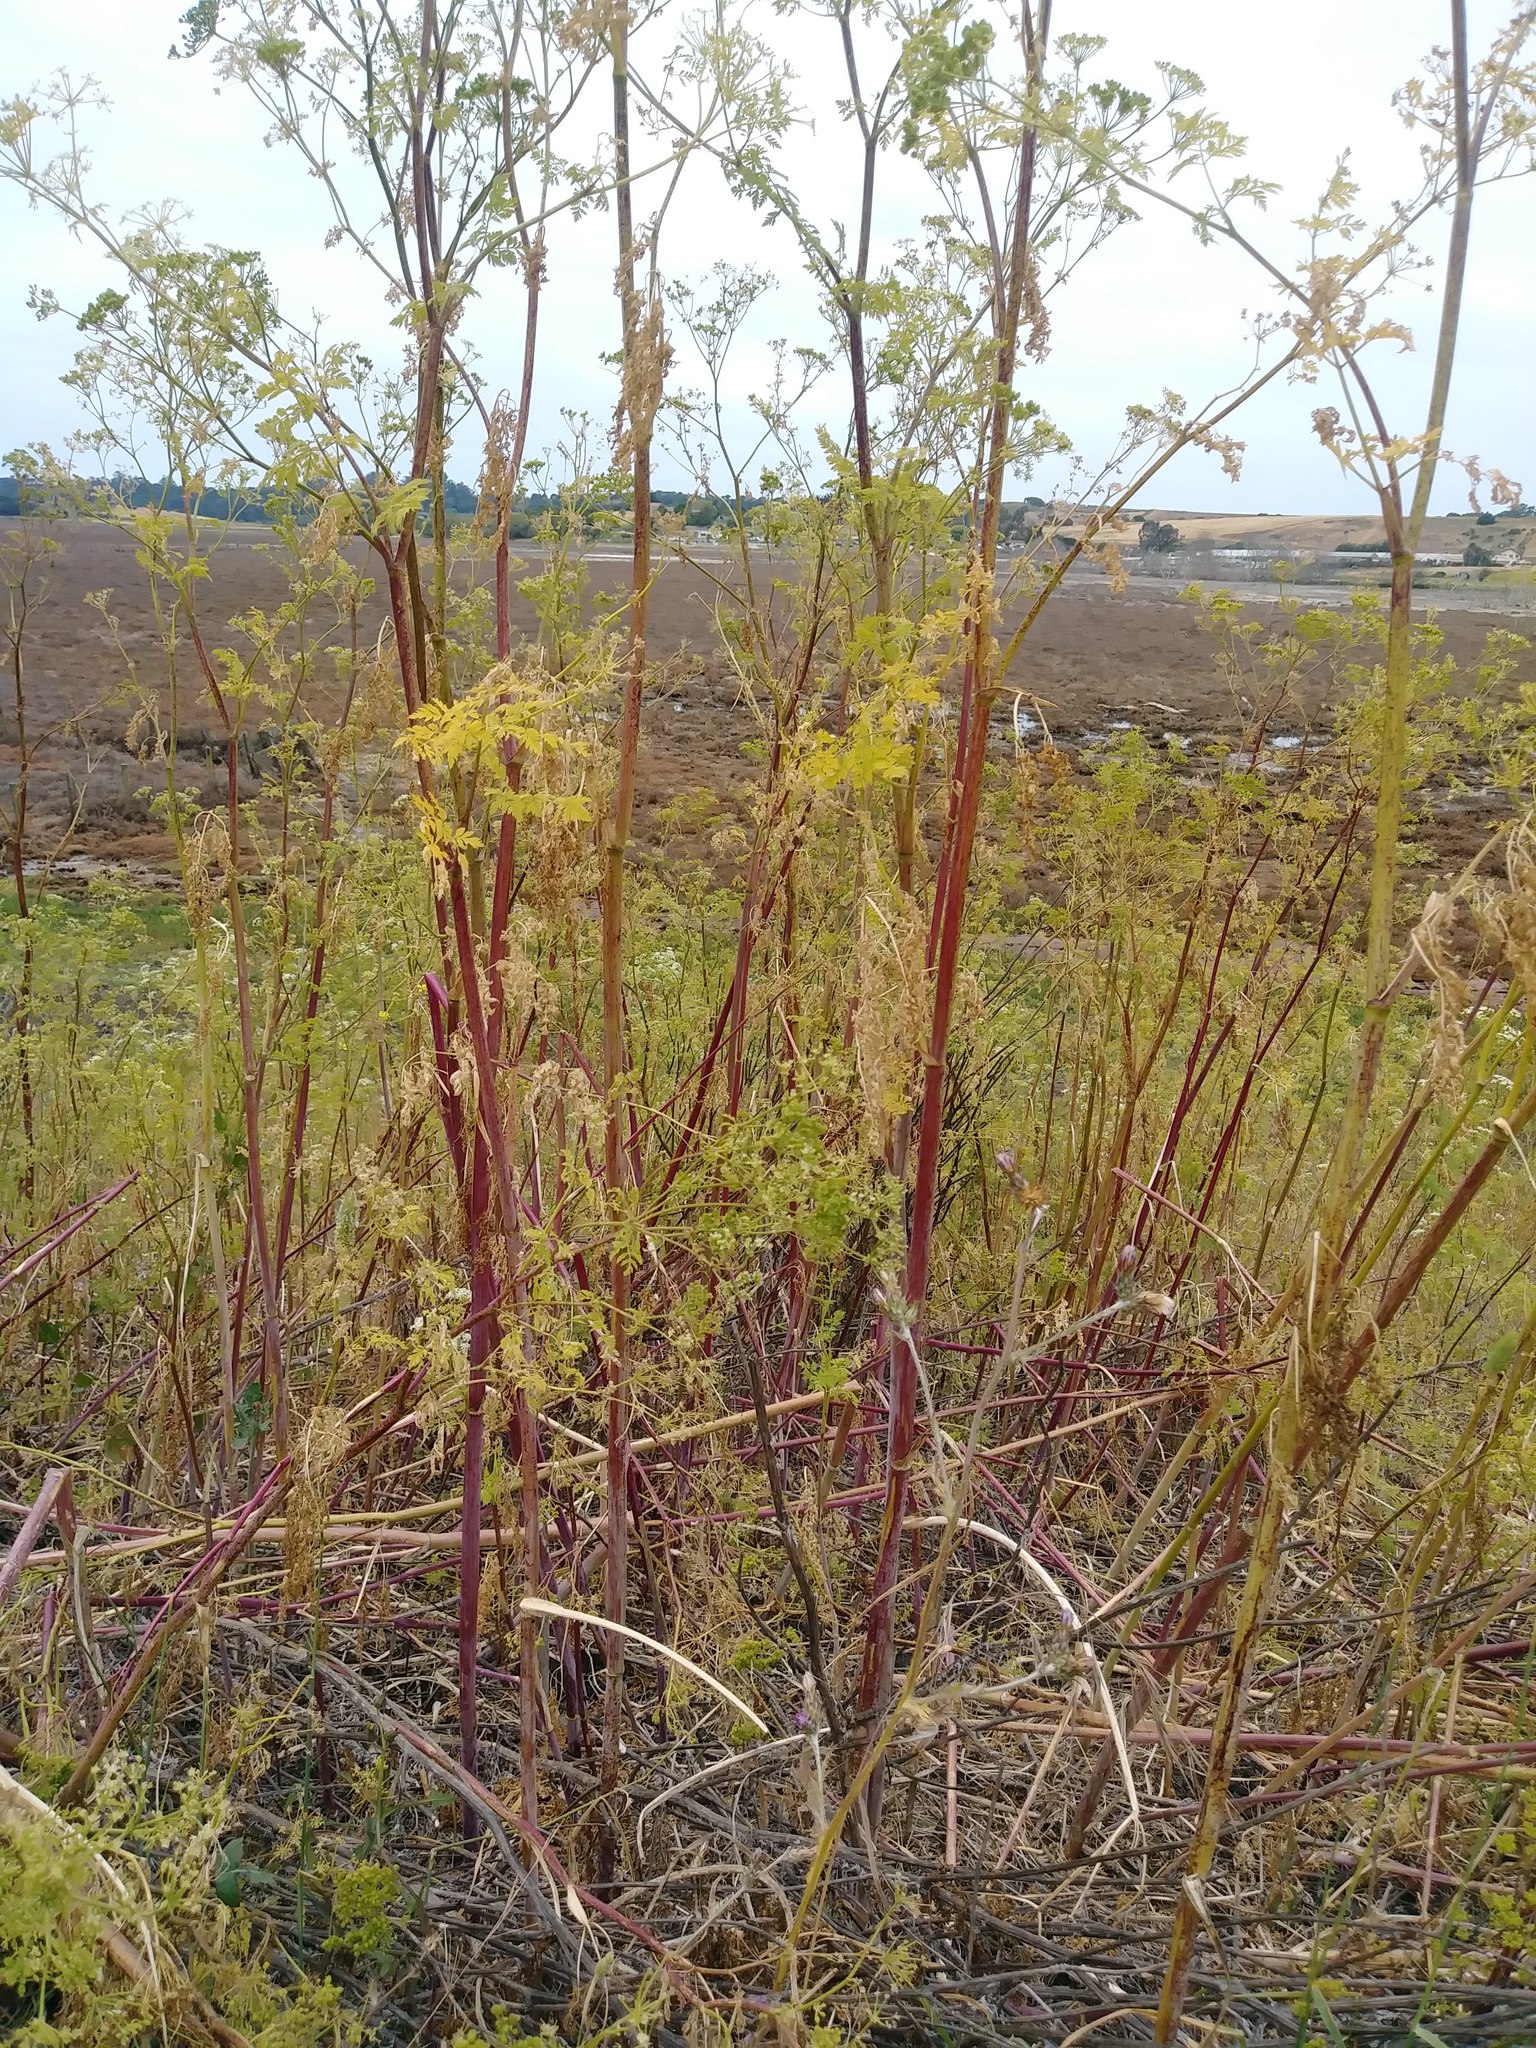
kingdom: Plantae
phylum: Tracheophyta
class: Magnoliopsida
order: Apiales
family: Apiaceae
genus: Conium
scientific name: Conium maculatum
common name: Hemlock
